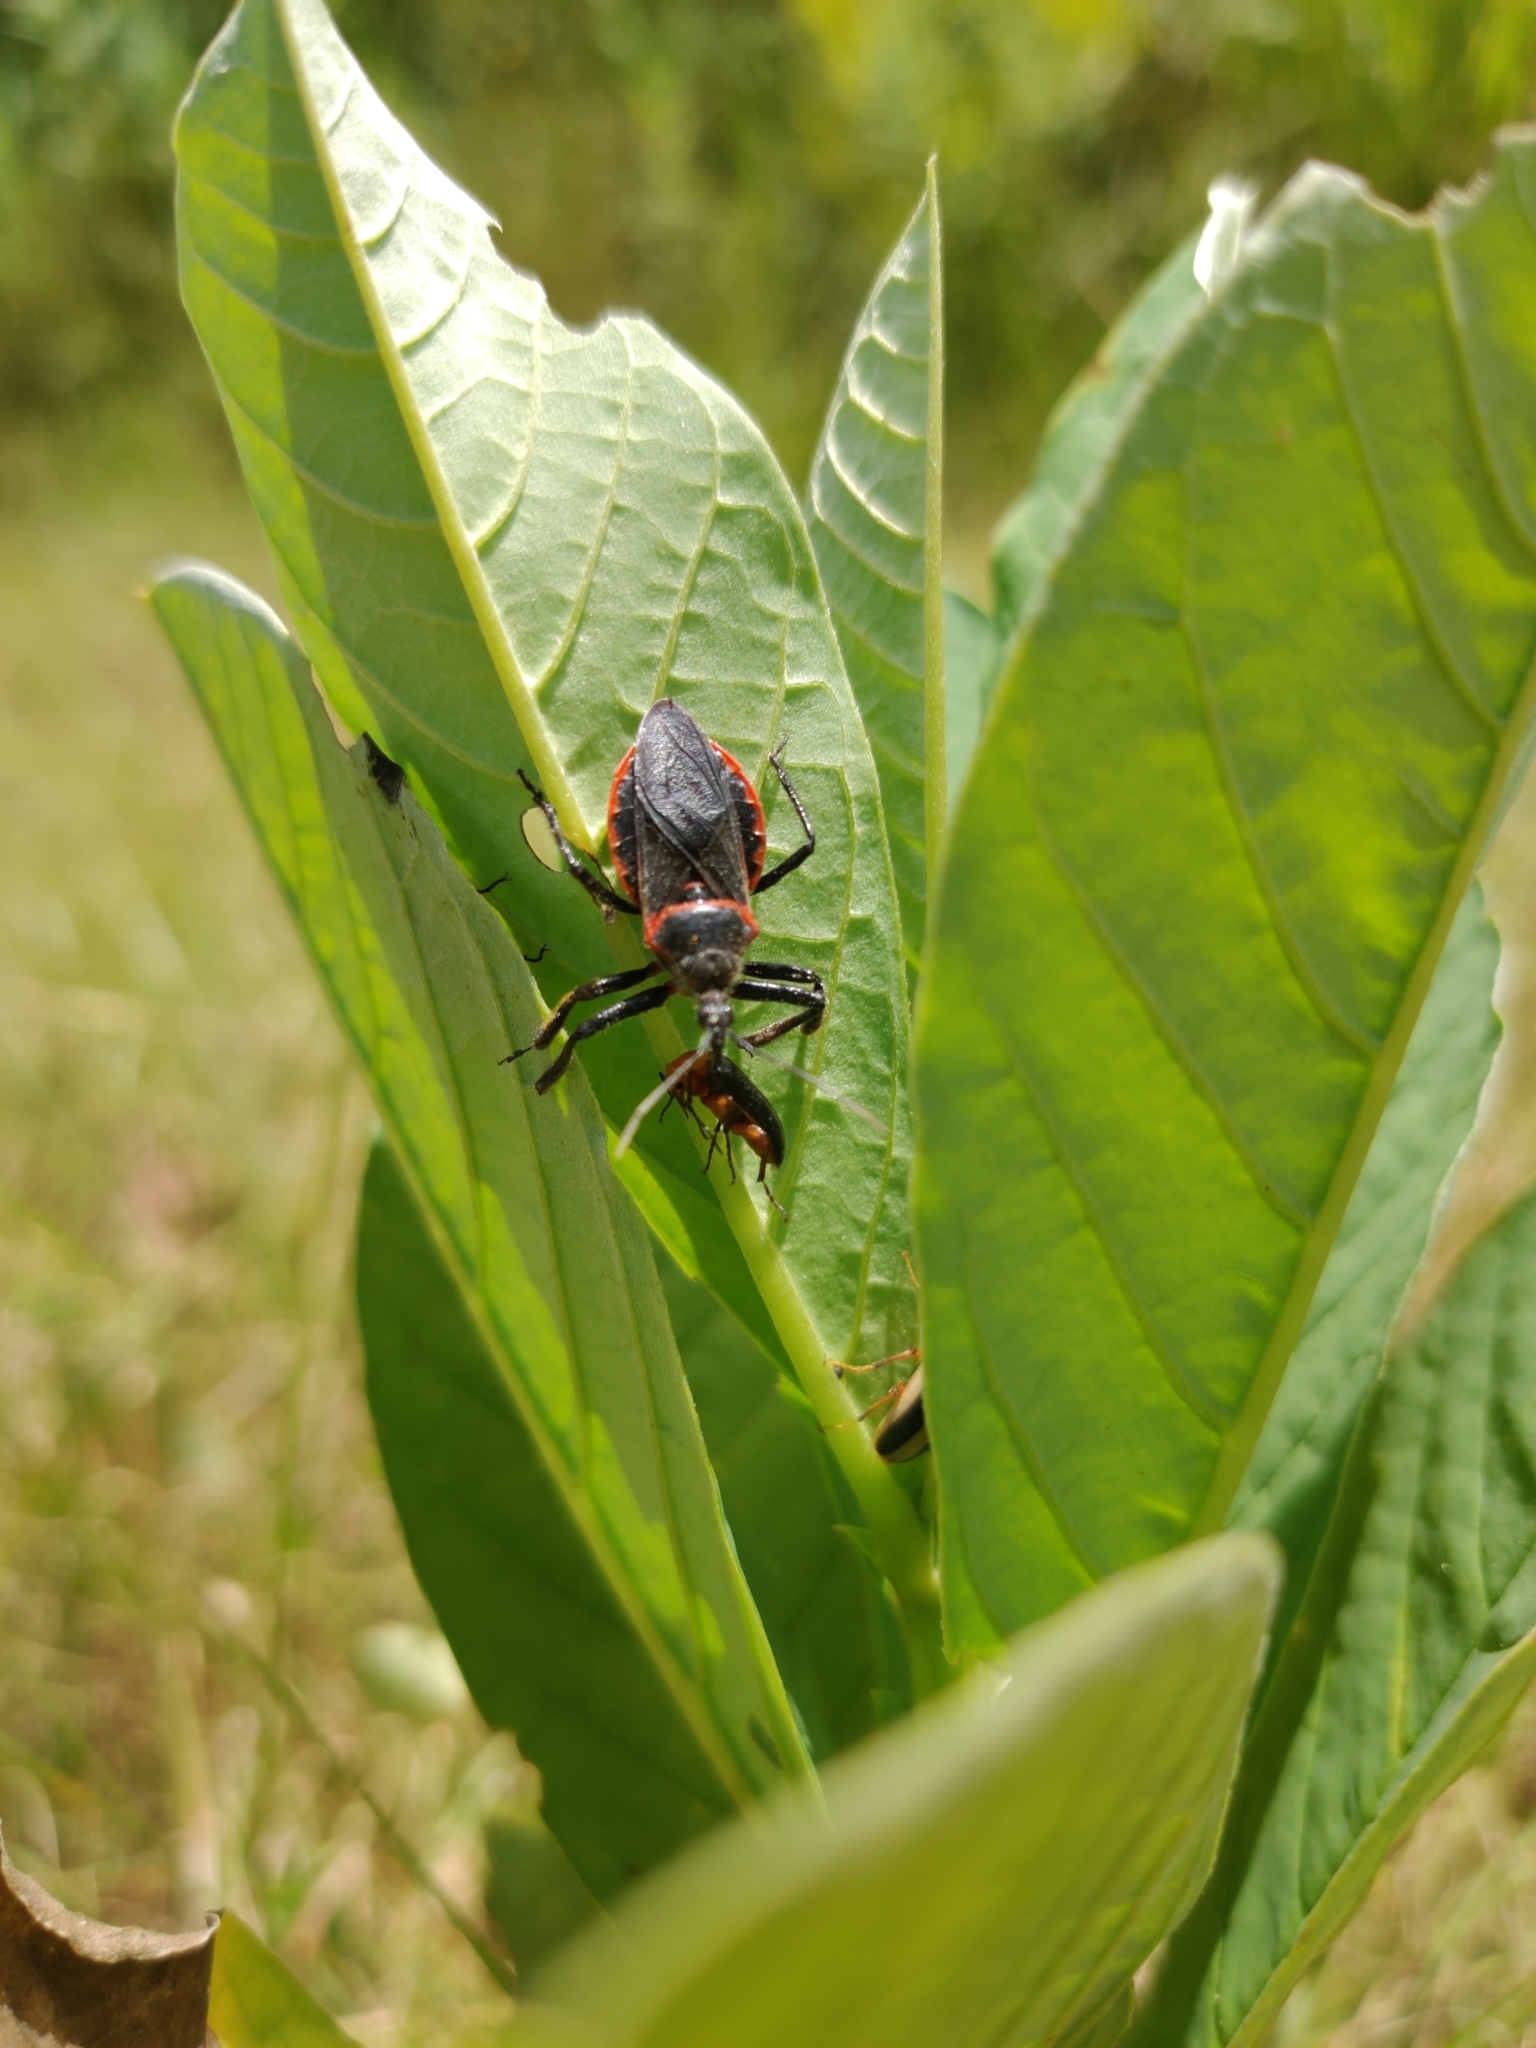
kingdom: Animalia
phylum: Arthropoda
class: Insecta
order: Hemiptera
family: Reduviidae
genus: Apiomerus
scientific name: Apiomerus crassipes
